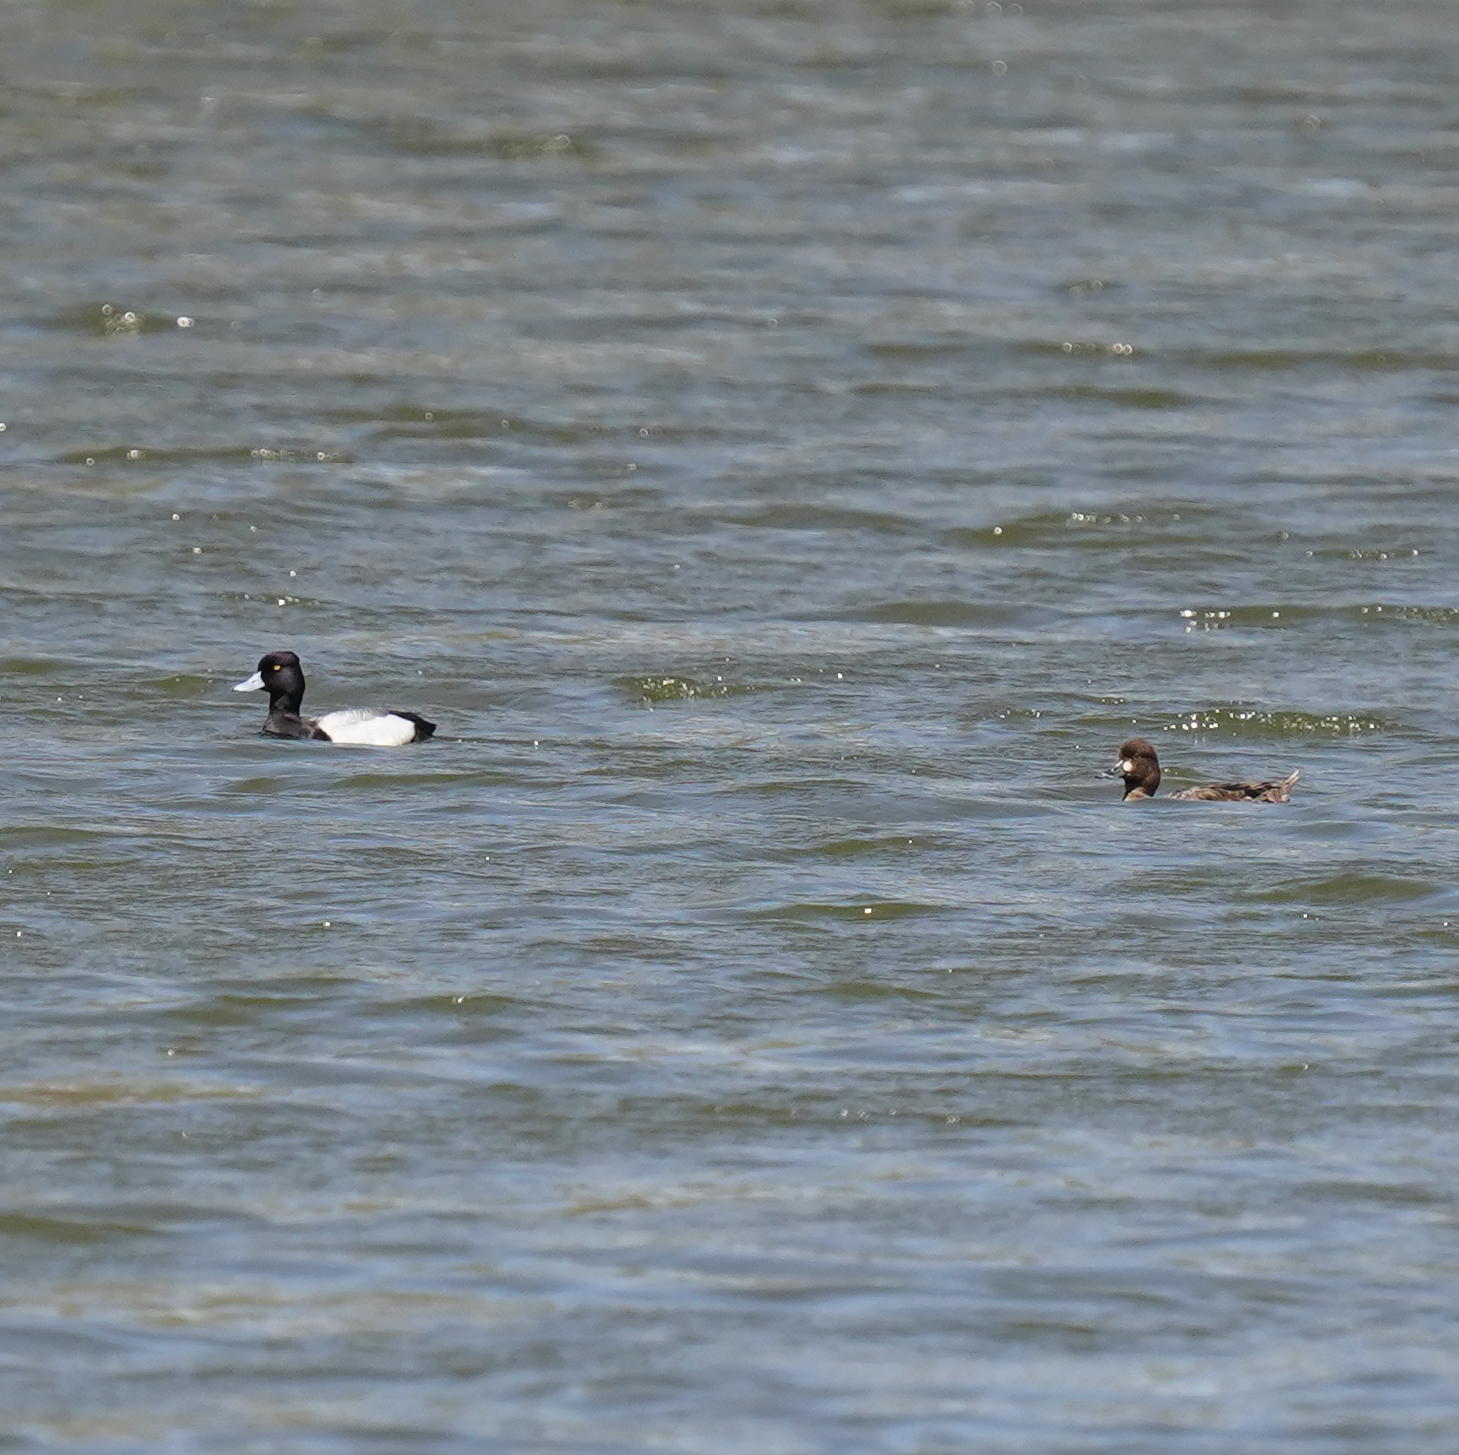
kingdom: Animalia
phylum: Chordata
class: Aves
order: Anseriformes
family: Anatidae
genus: Aythya
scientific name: Aythya affinis
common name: Lesser scaup
